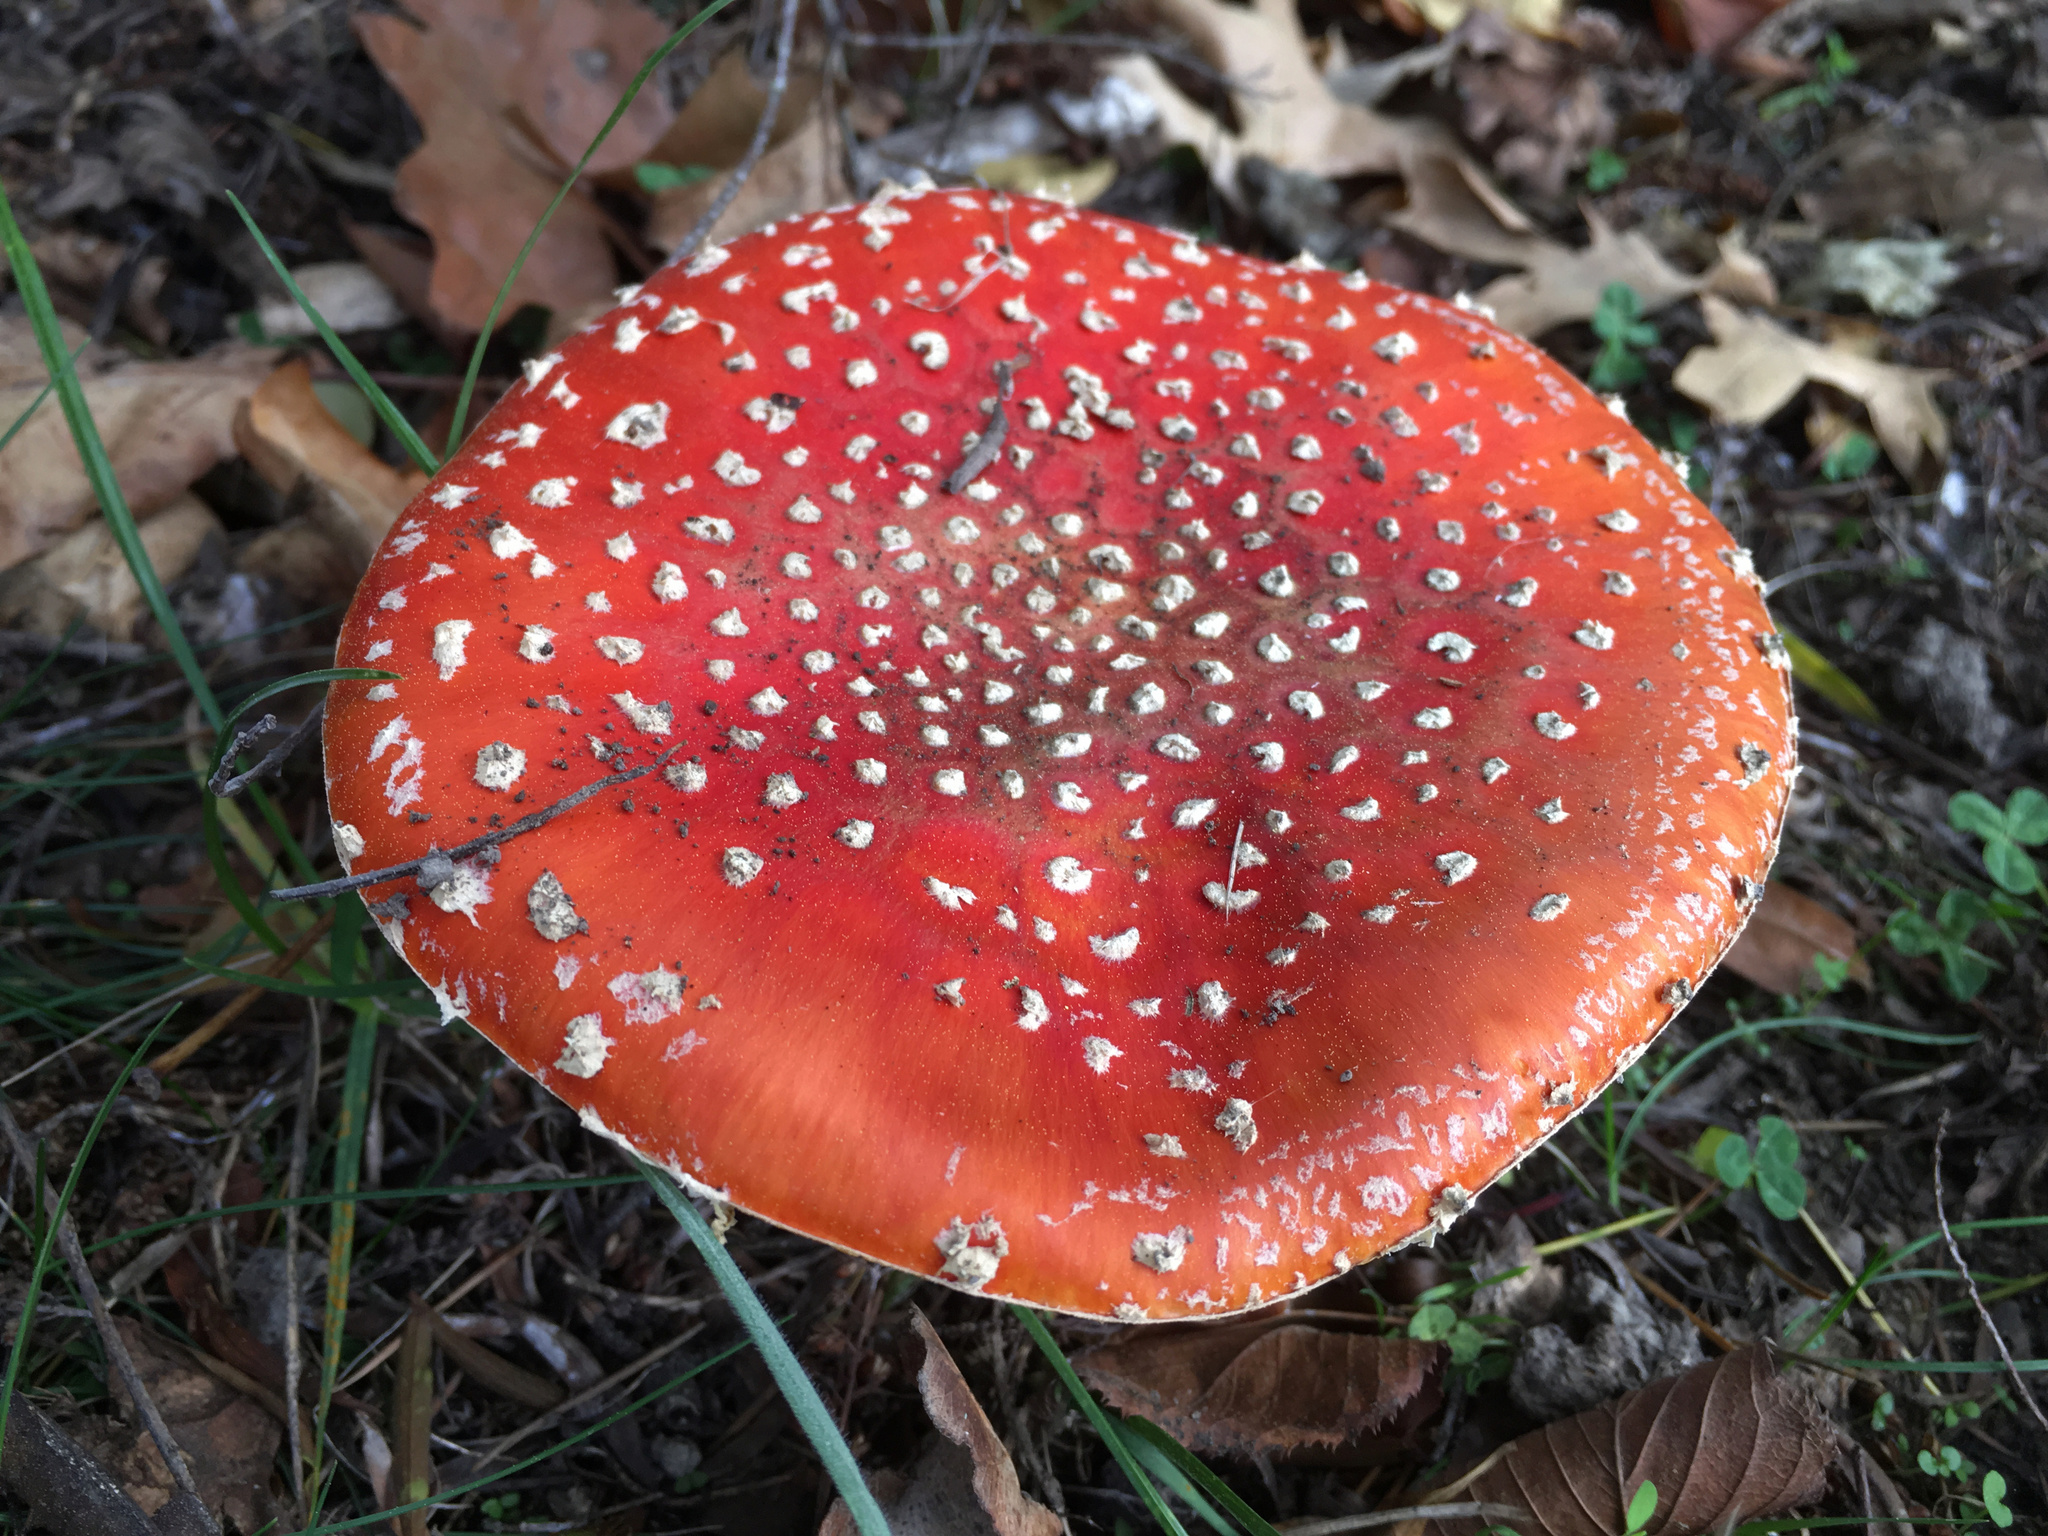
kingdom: Fungi
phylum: Basidiomycota
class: Agaricomycetes
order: Agaricales
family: Amanitaceae
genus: Amanita
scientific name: Amanita muscaria
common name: Fly agaric
